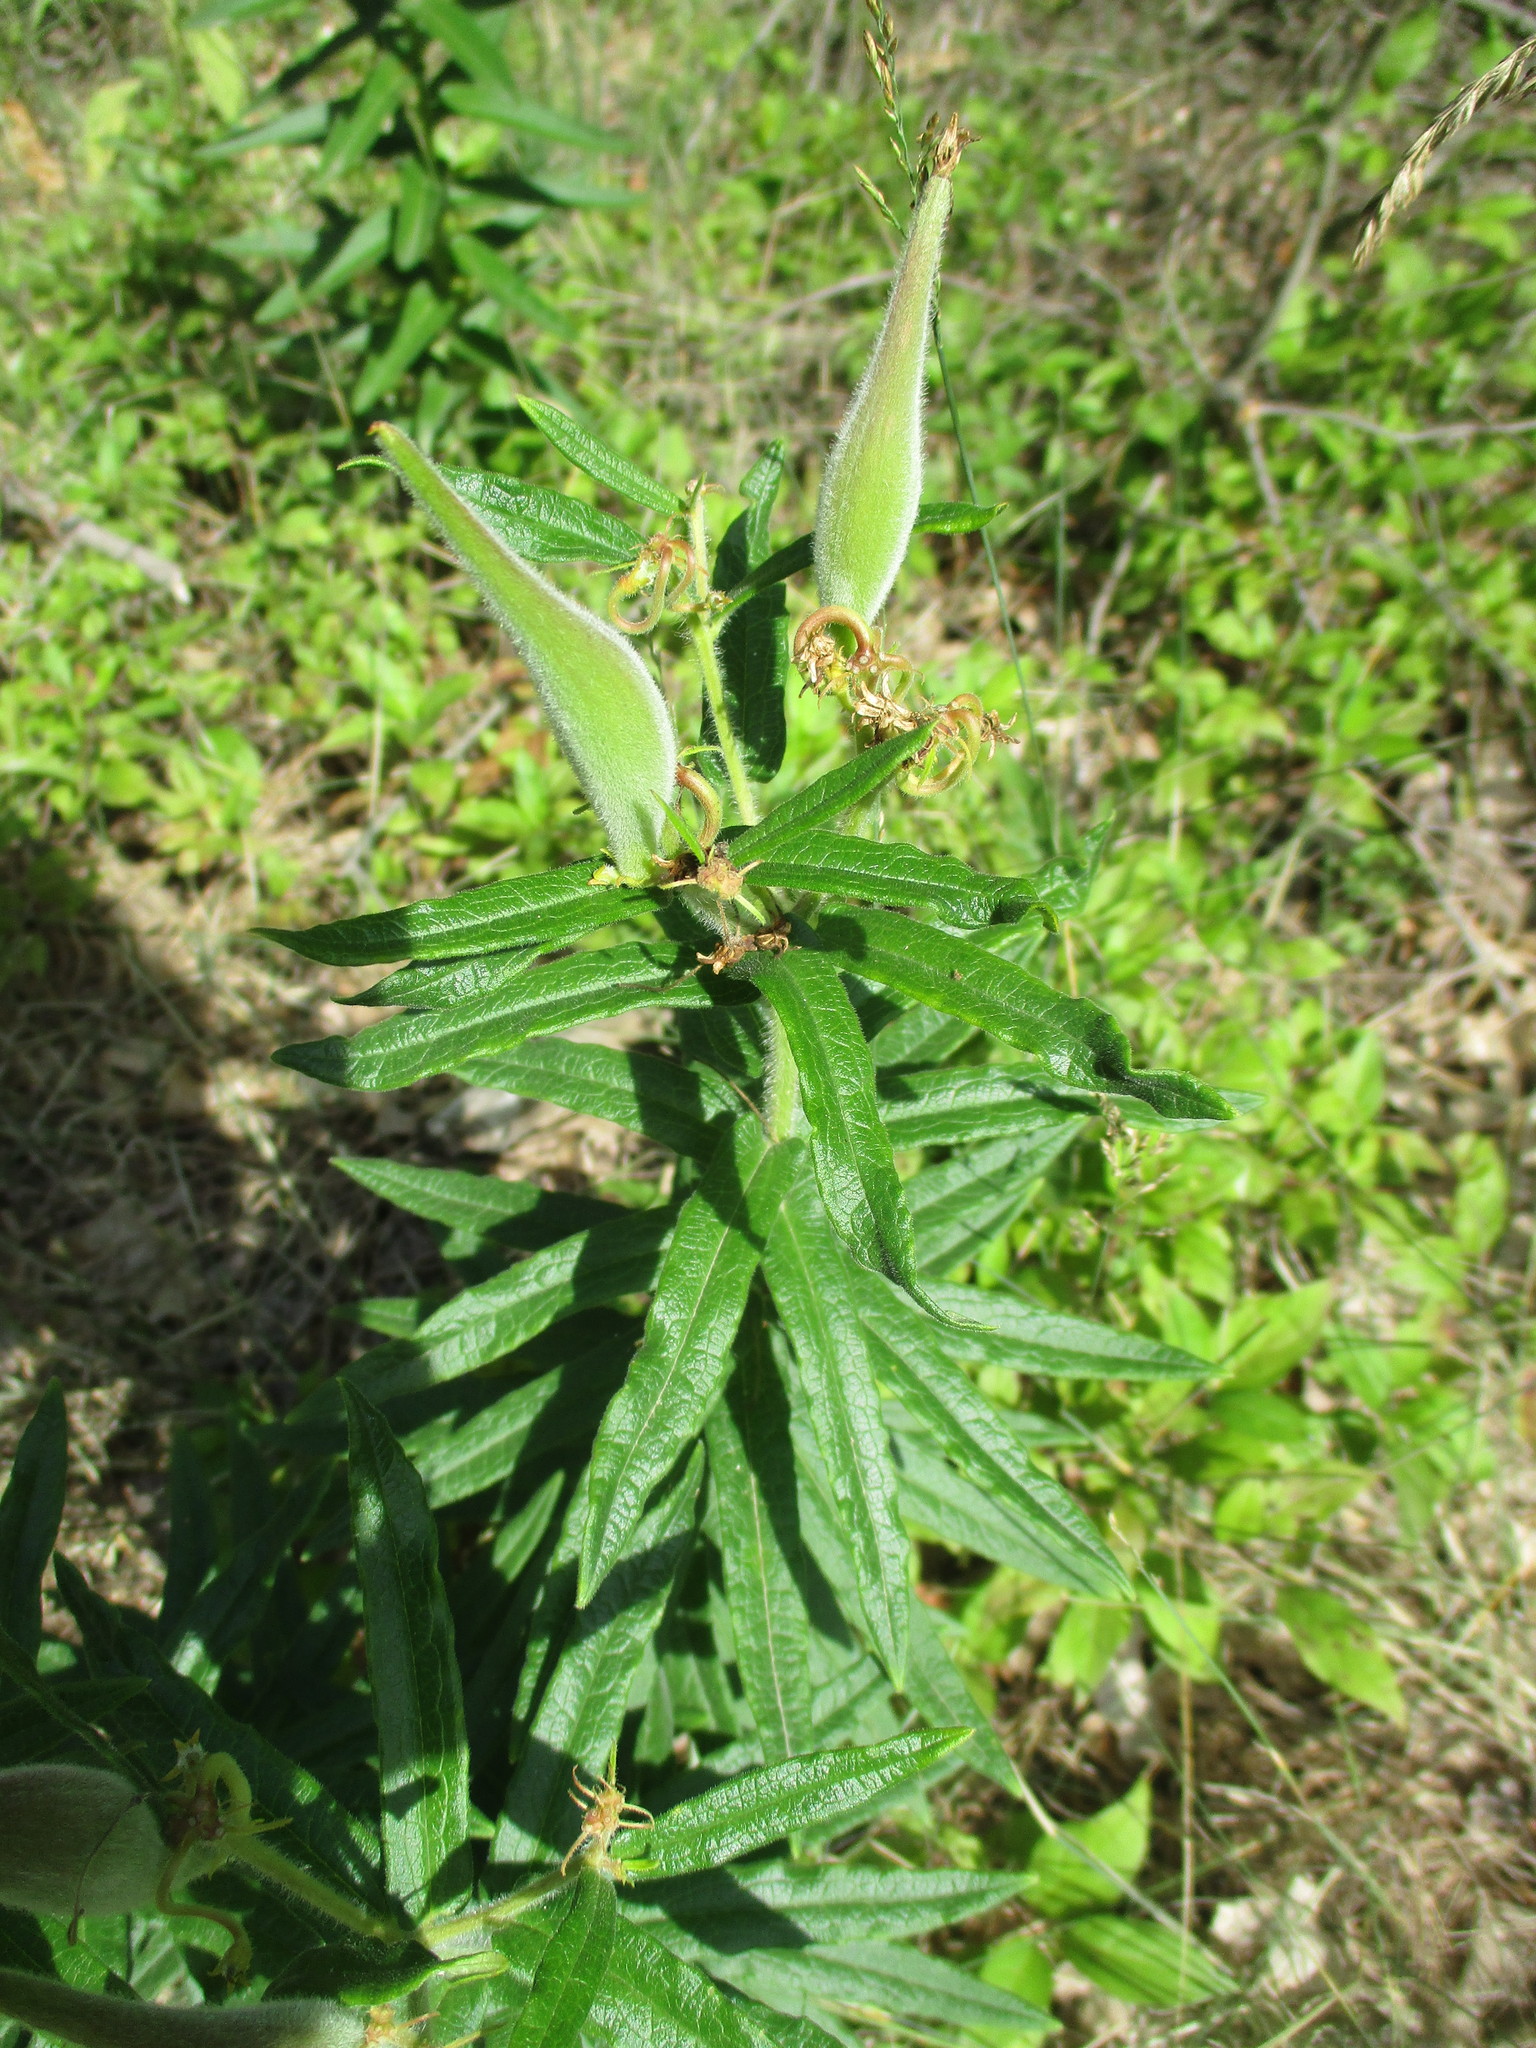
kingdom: Plantae
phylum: Tracheophyta
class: Magnoliopsida
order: Gentianales
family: Apocynaceae
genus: Asclepias
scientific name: Asclepias tuberosa
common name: Butterfly milkweed
